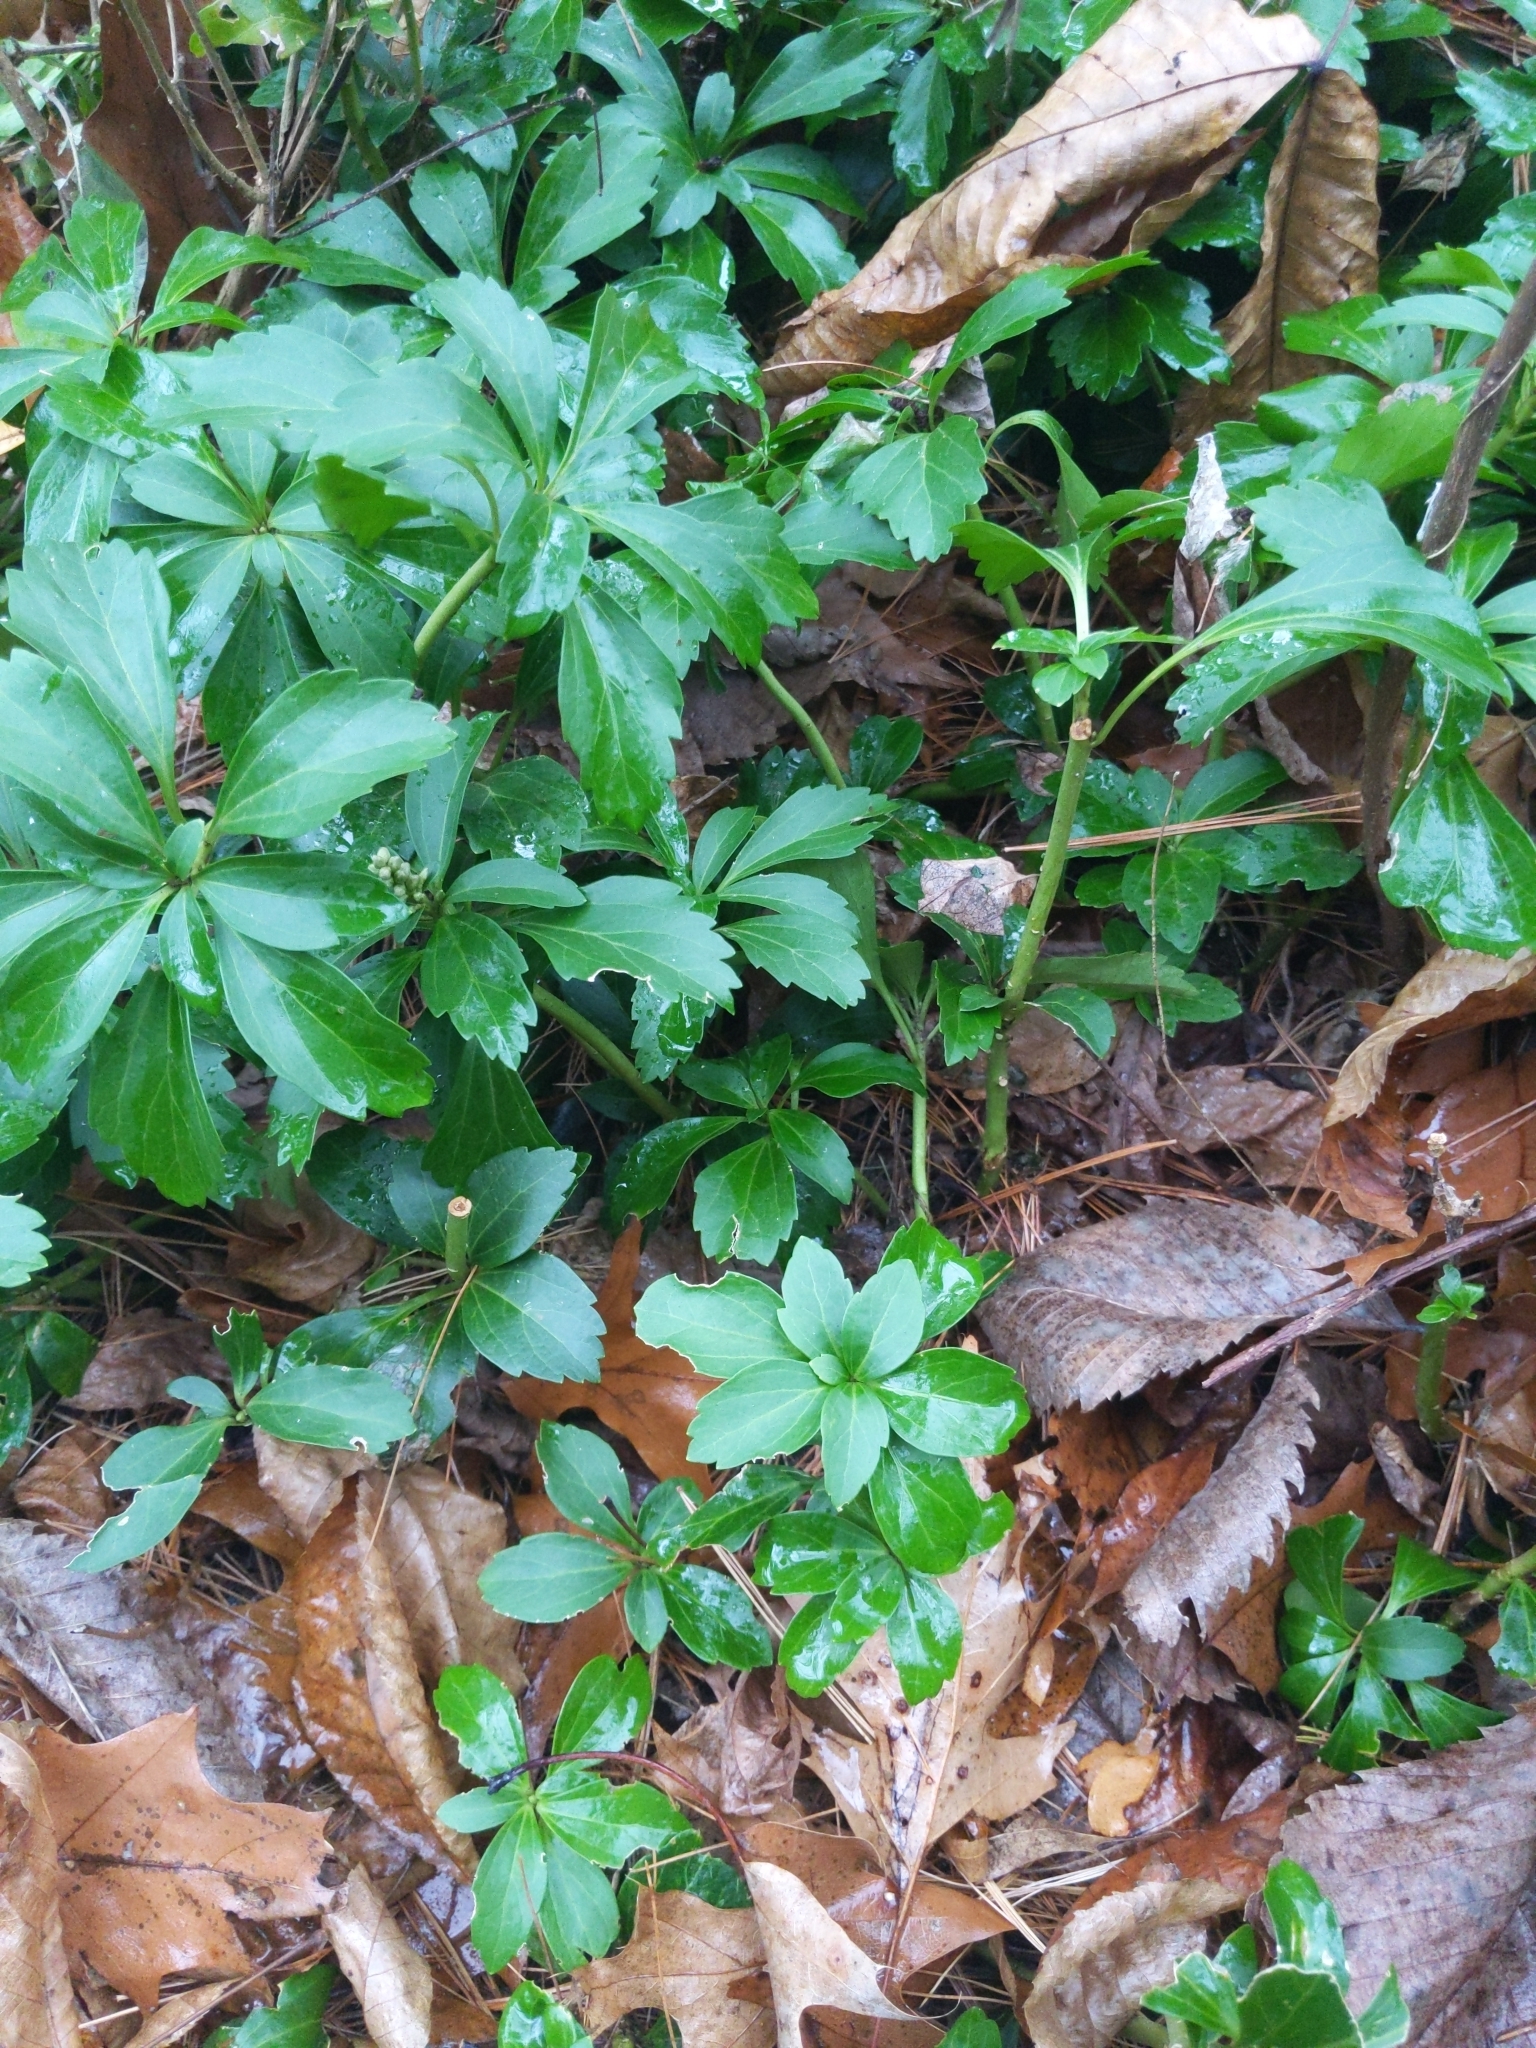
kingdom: Plantae
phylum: Tracheophyta
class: Magnoliopsida
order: Buxales
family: Buxaceae
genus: Pachysandra
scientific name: Pachysandra terminalis
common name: Japanese pachysandra
